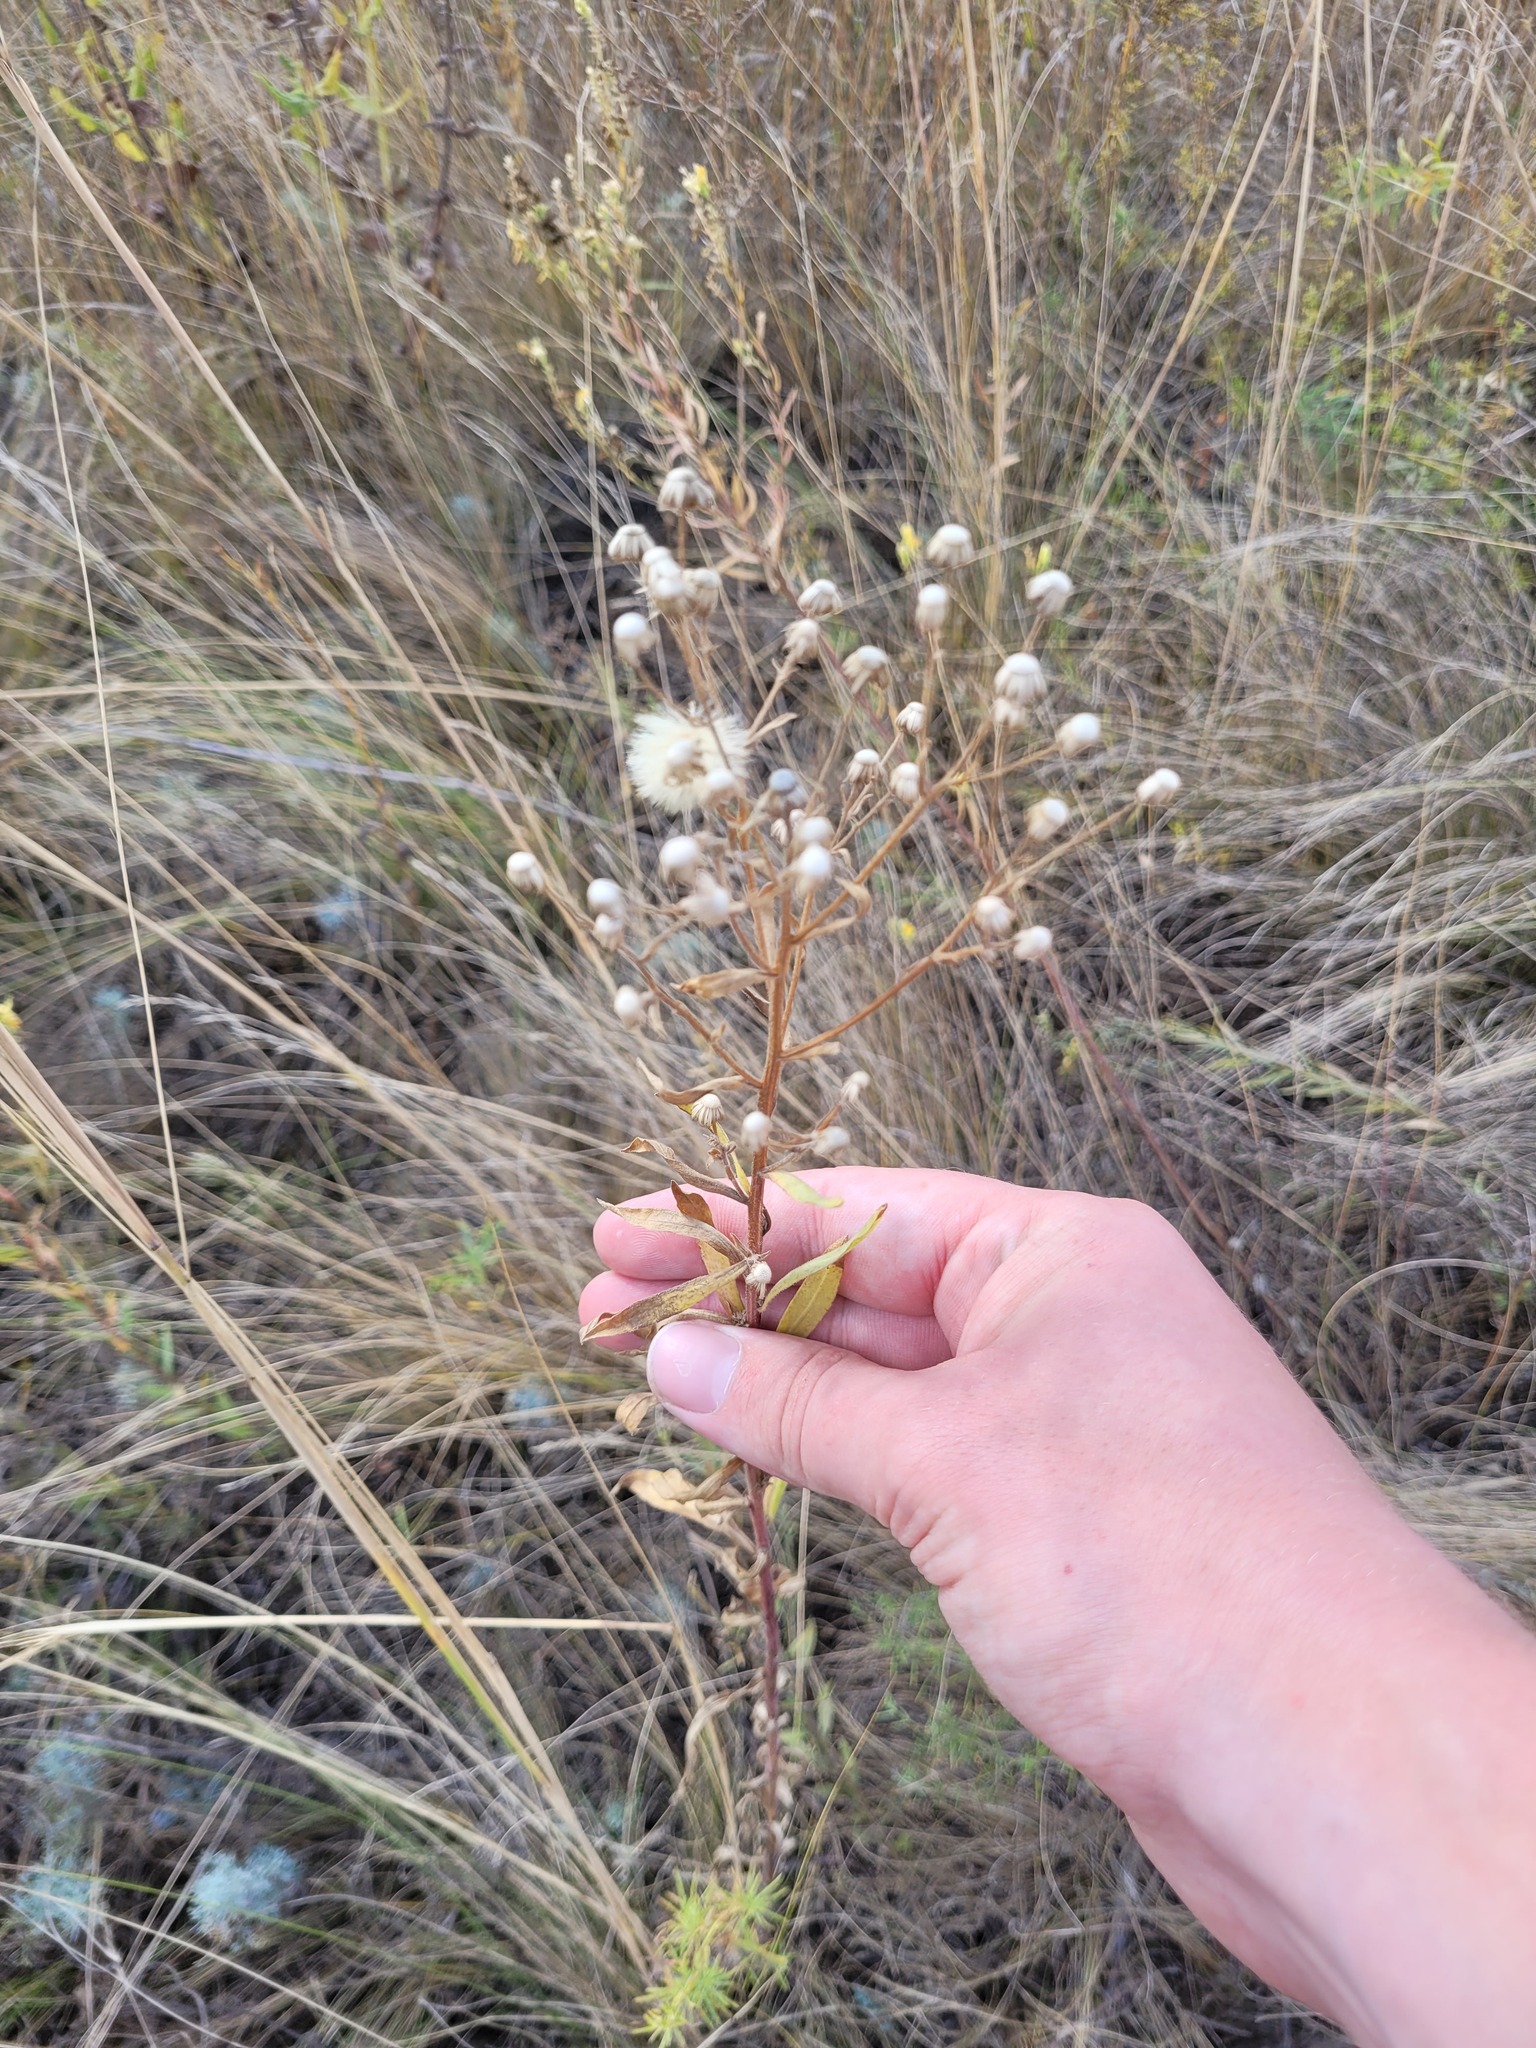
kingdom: Plantae
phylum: Tracheophyta
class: Magnoliopsida
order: Asterales
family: Asteraceae
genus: Erigeron
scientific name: Erigeron podolicus
